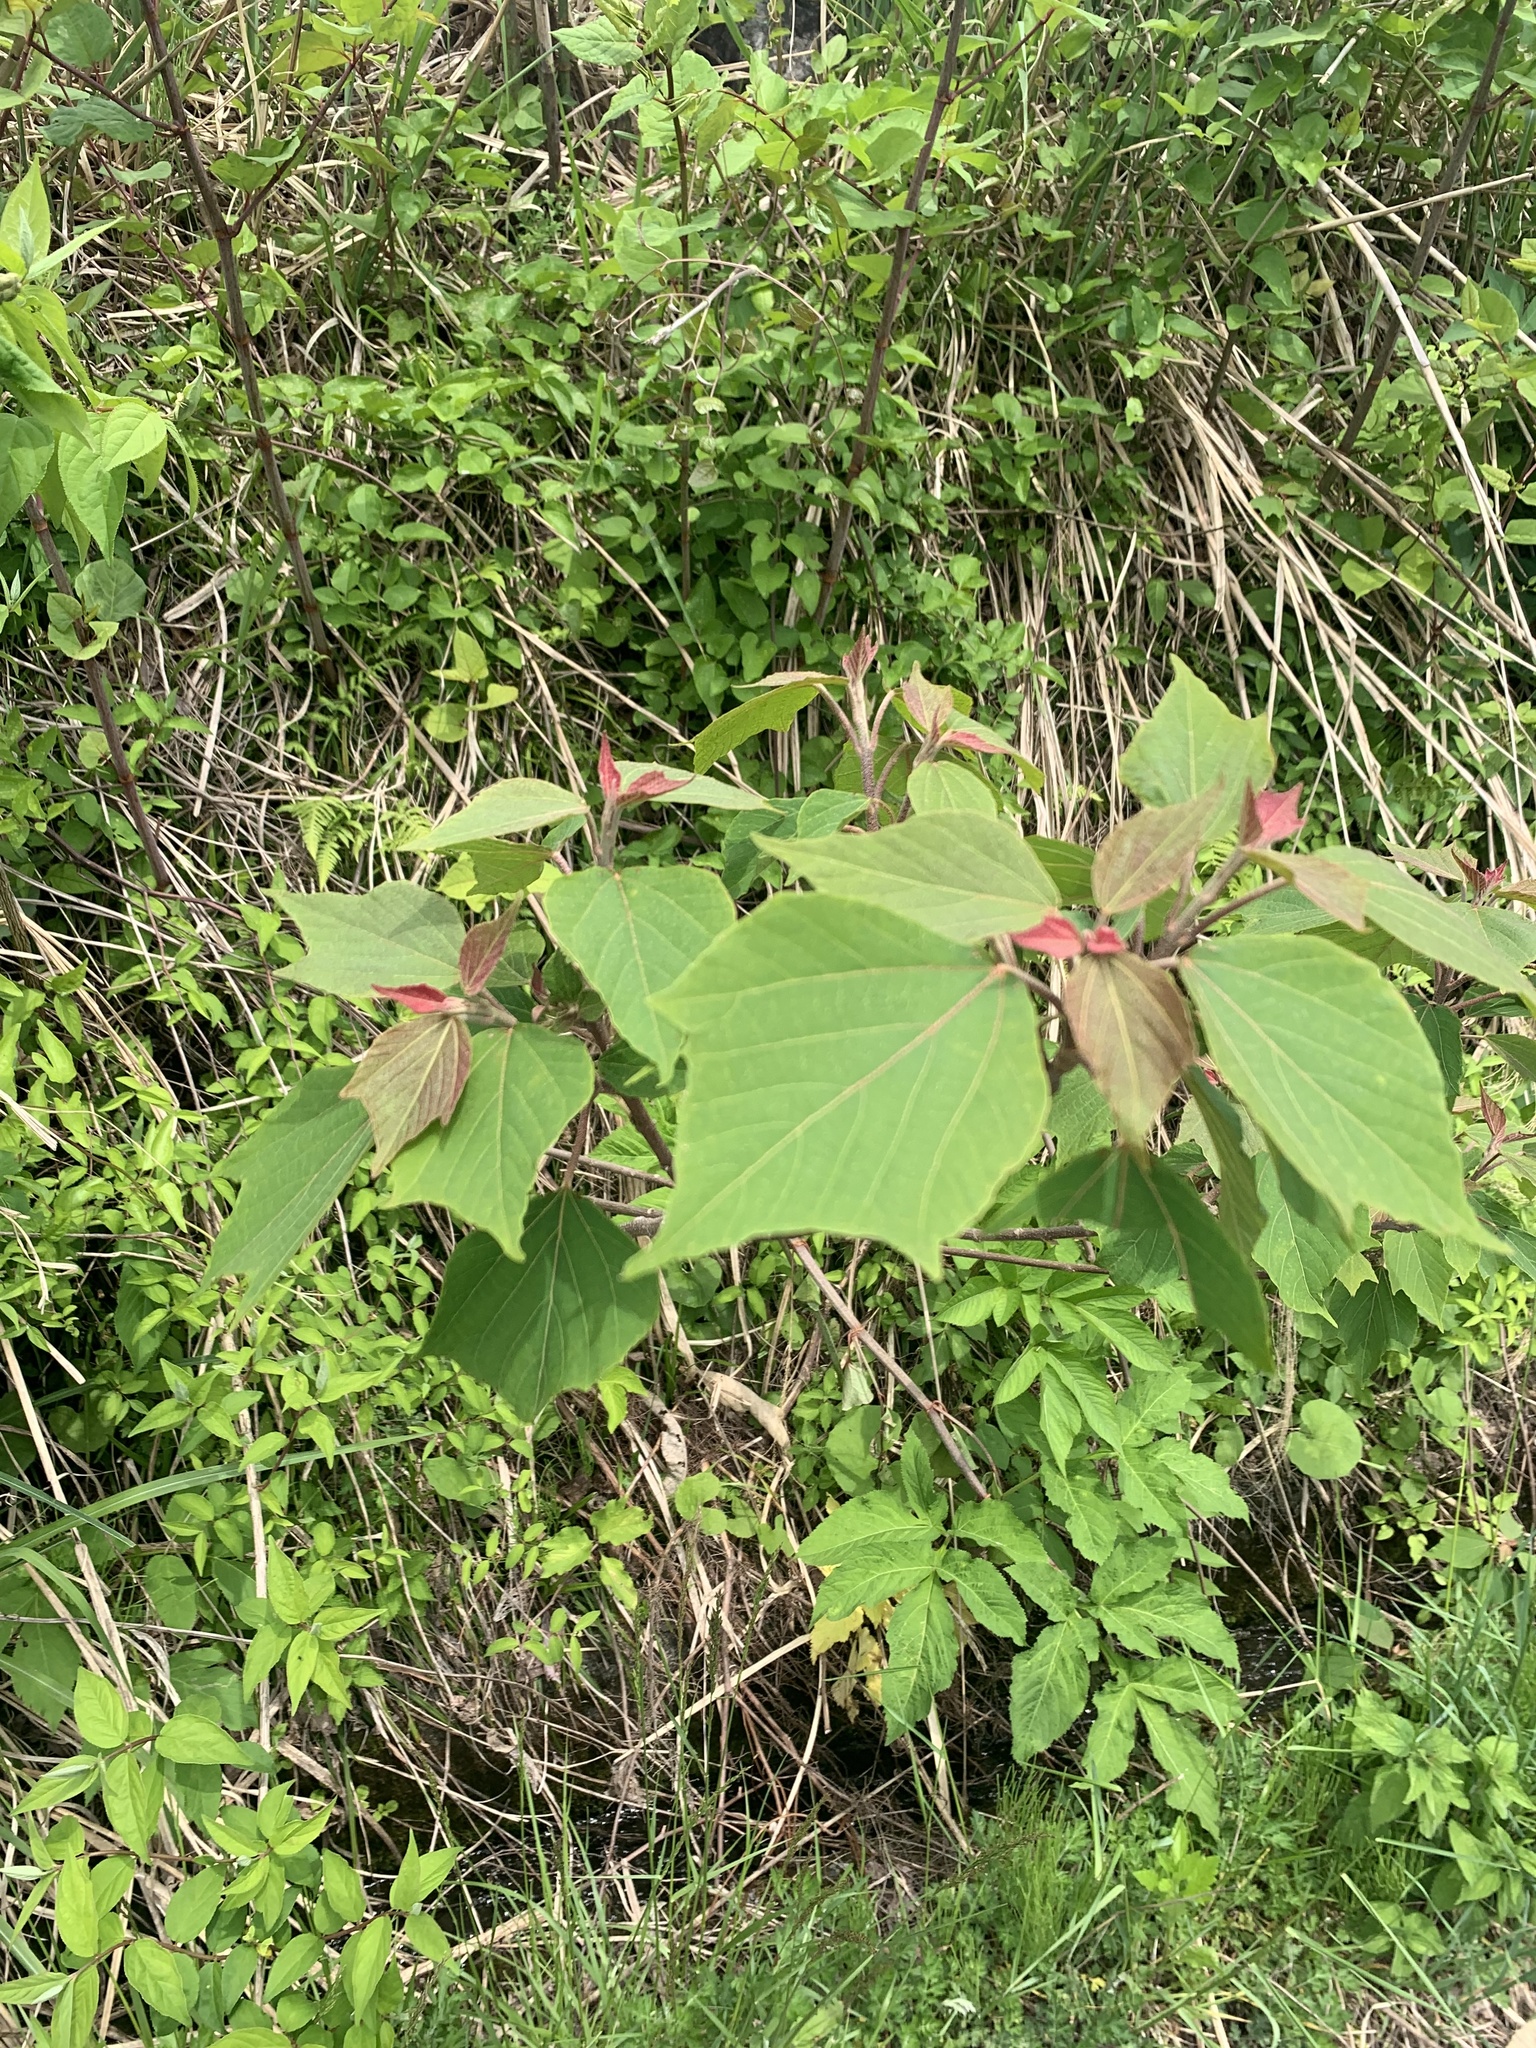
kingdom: Plantae
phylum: Tracheophyta
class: Magnoliopsida
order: Malpighiales
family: Euphorbiaceae
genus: Mallotus
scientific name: Mallotus japonicus
